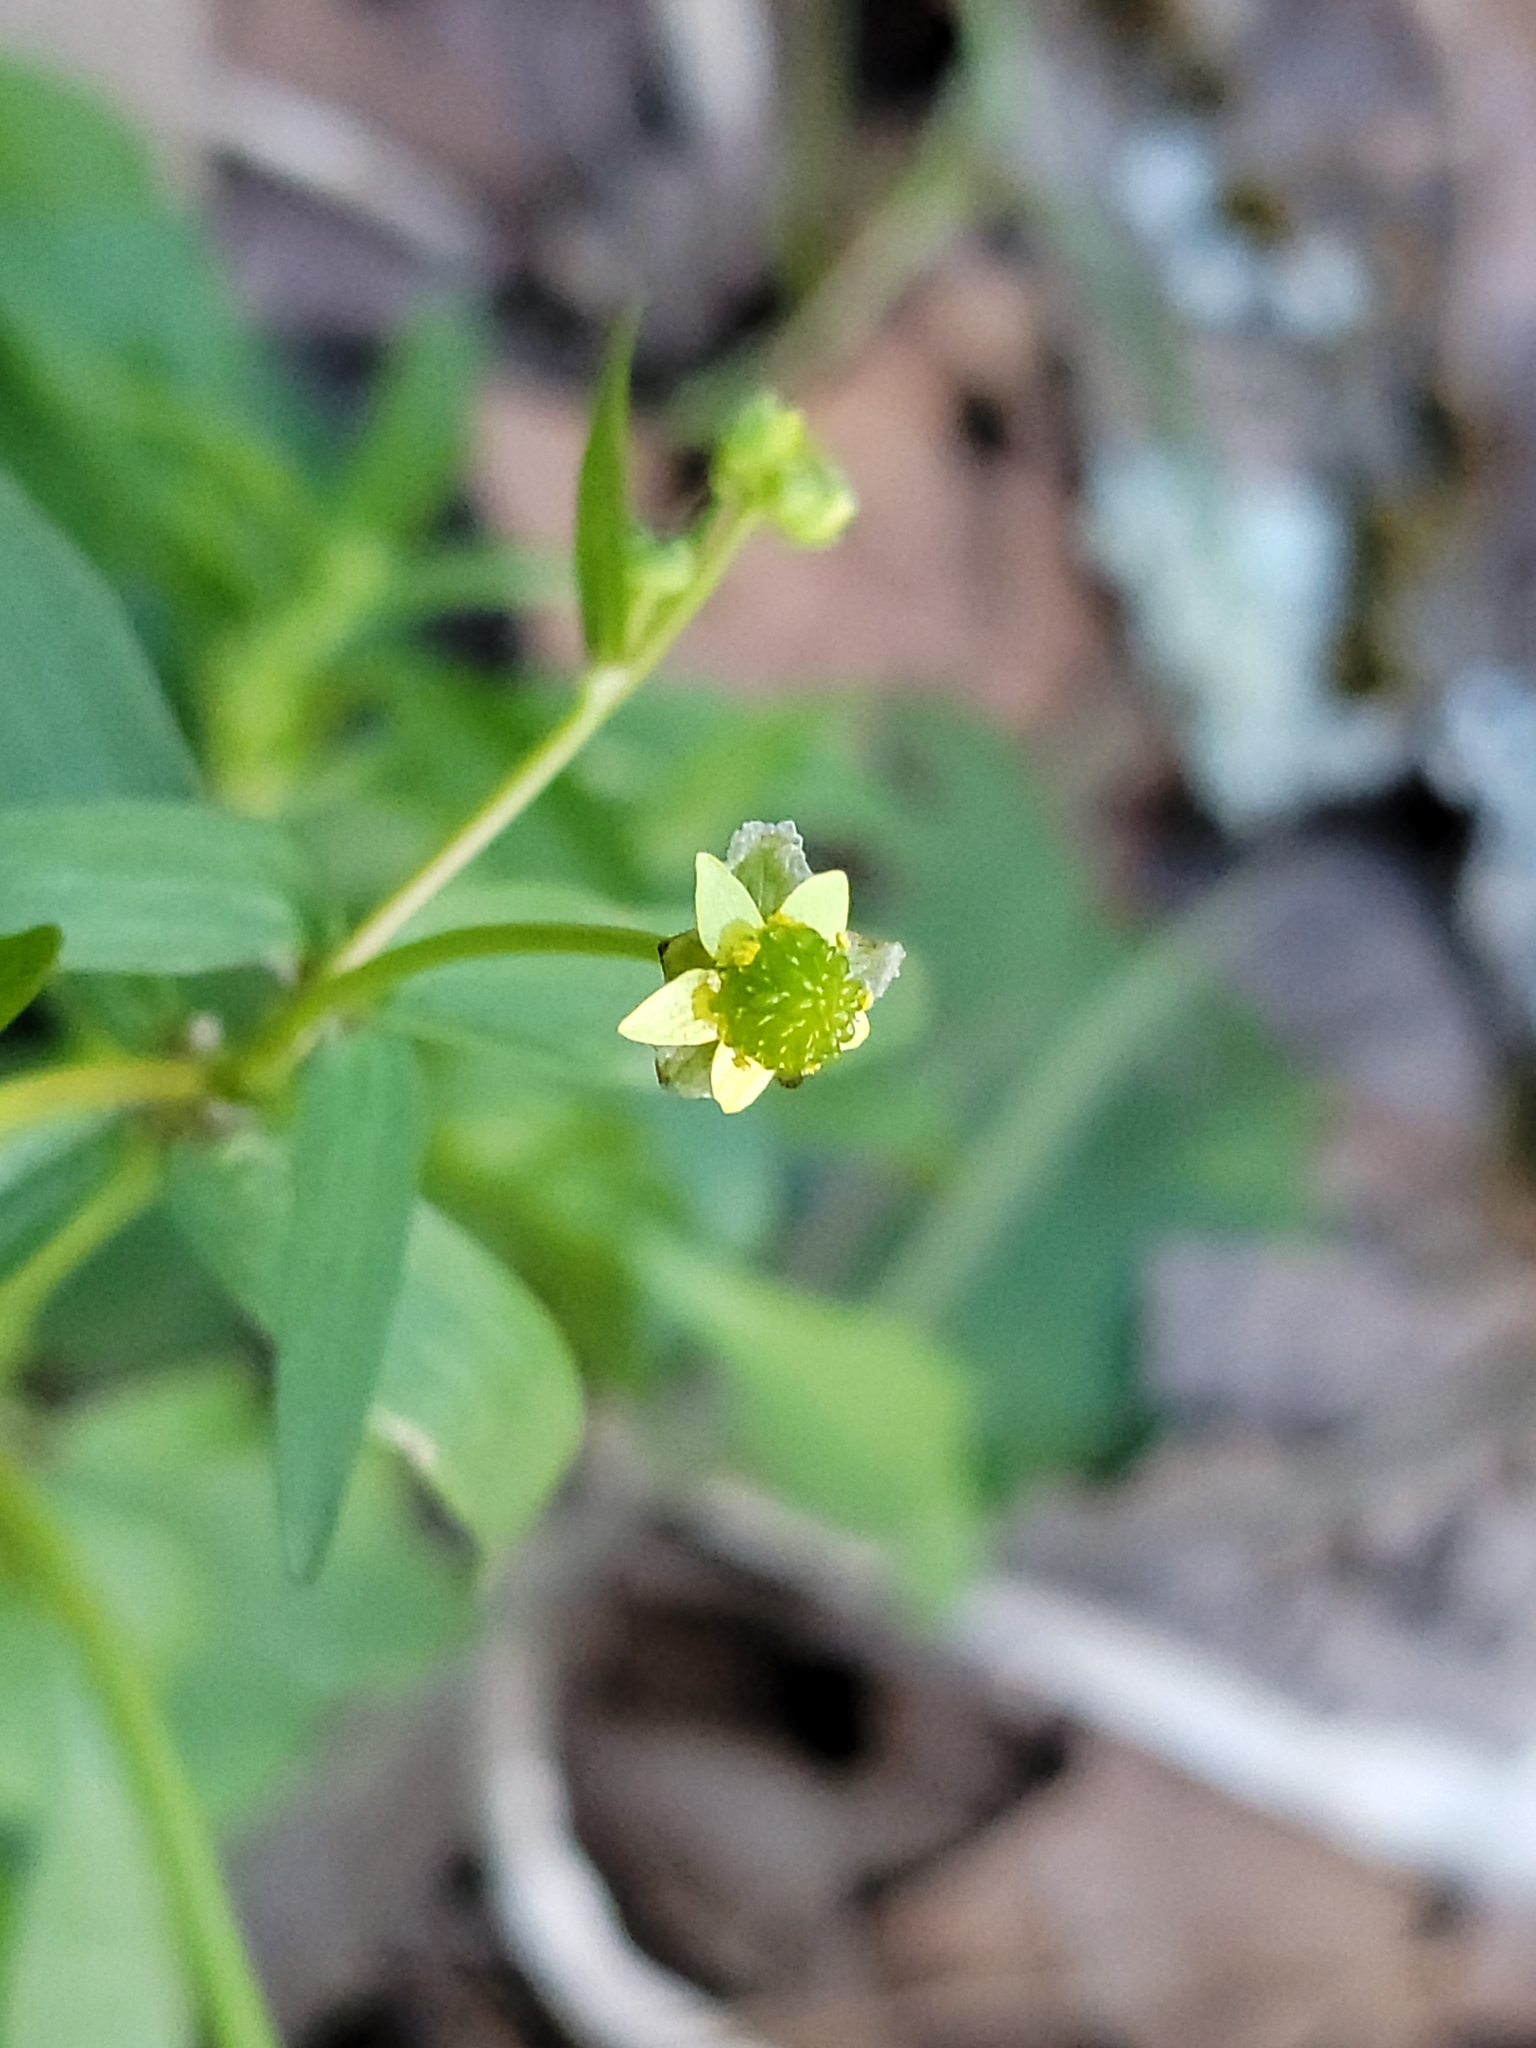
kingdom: Plantae
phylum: Tracheophyta
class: Magnoliopsida
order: Ranunculales
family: Ranunculaceae
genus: Ranunculus
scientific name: Ranunculus abortivus
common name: Early wood buttercup
